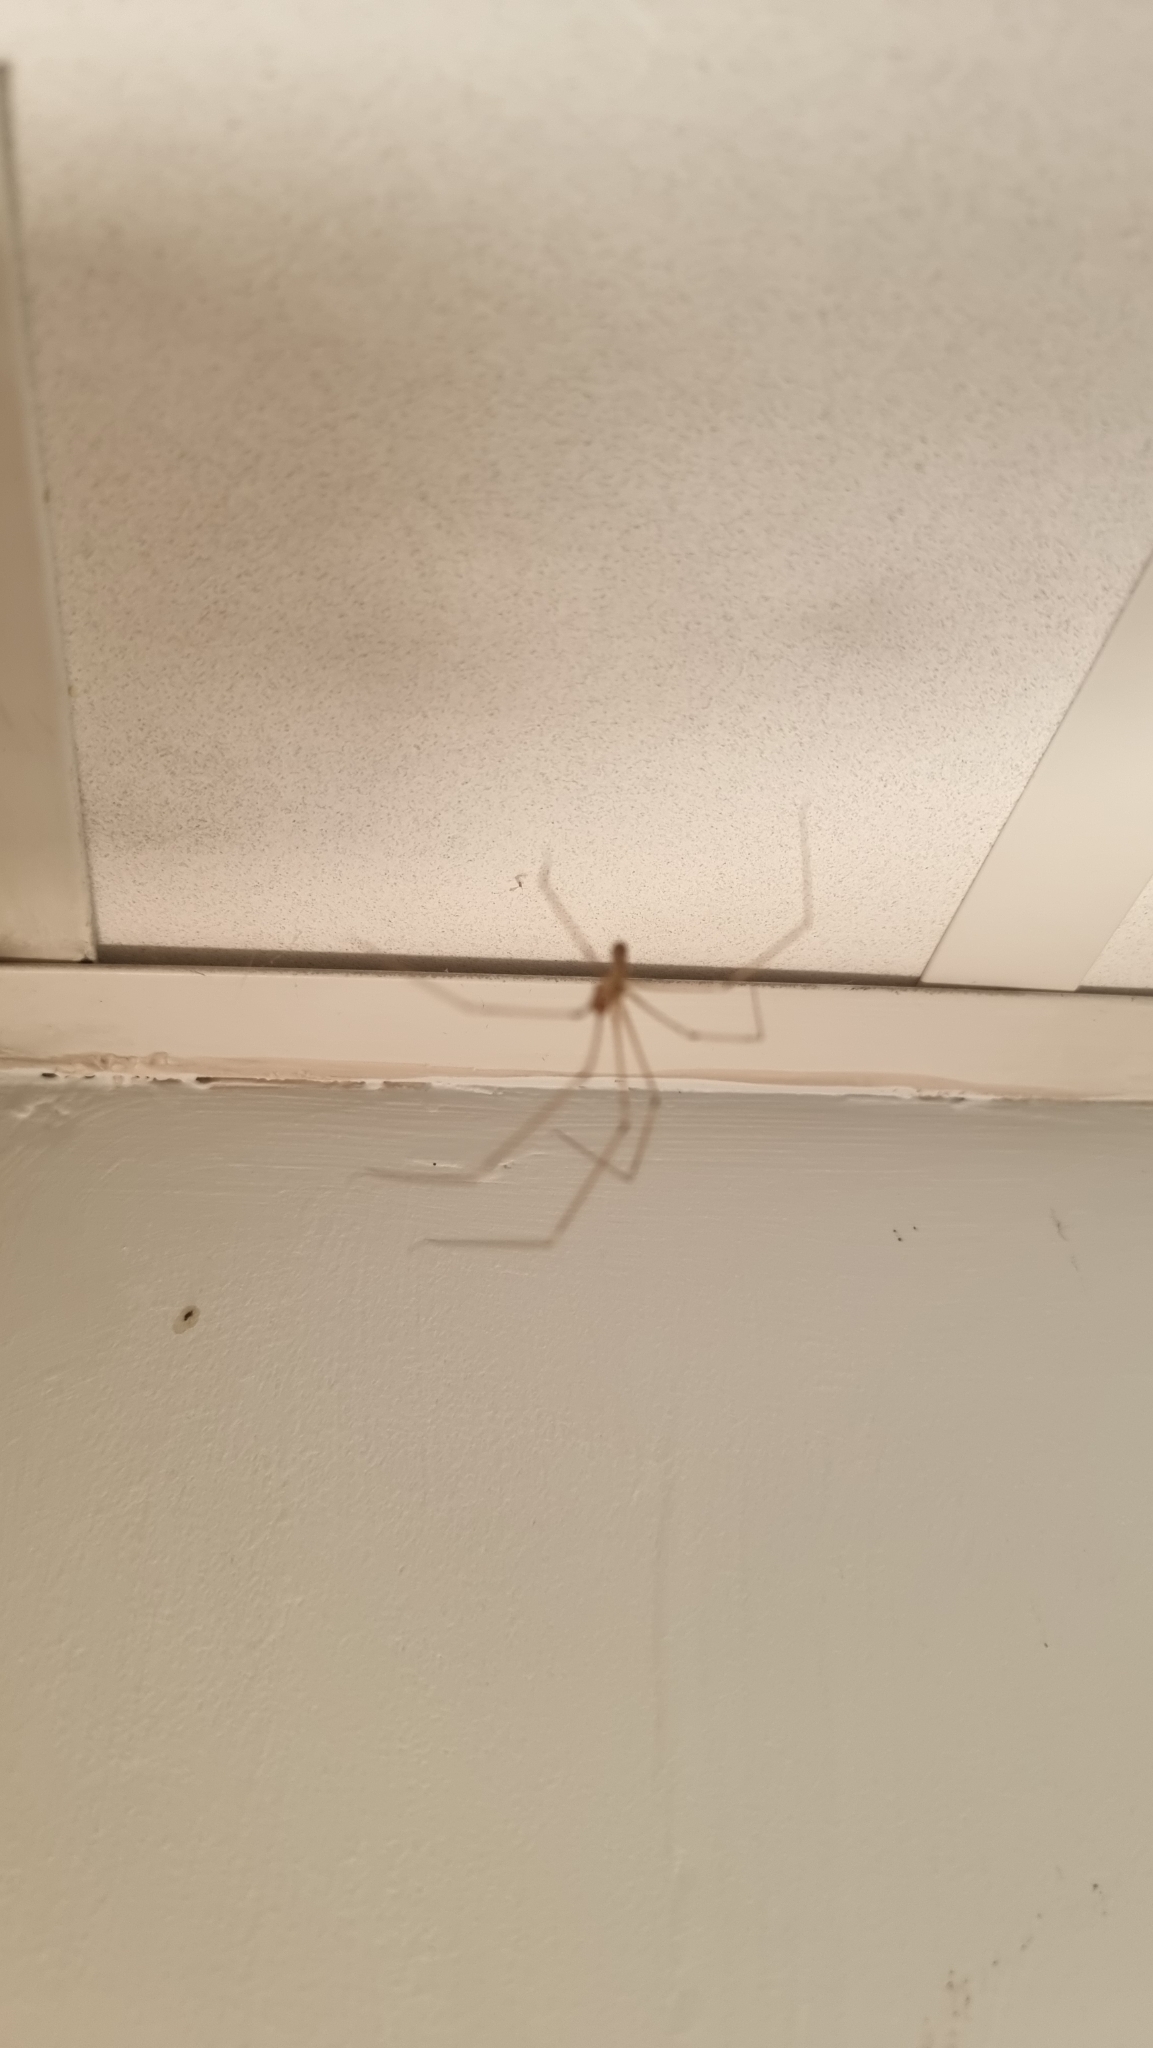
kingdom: Animalia
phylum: Arthropoda
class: Arachnida
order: Araneae
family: Pholcidae
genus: Pholcus
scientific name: Pholcus phalangioides
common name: Longbodied cellar spider
